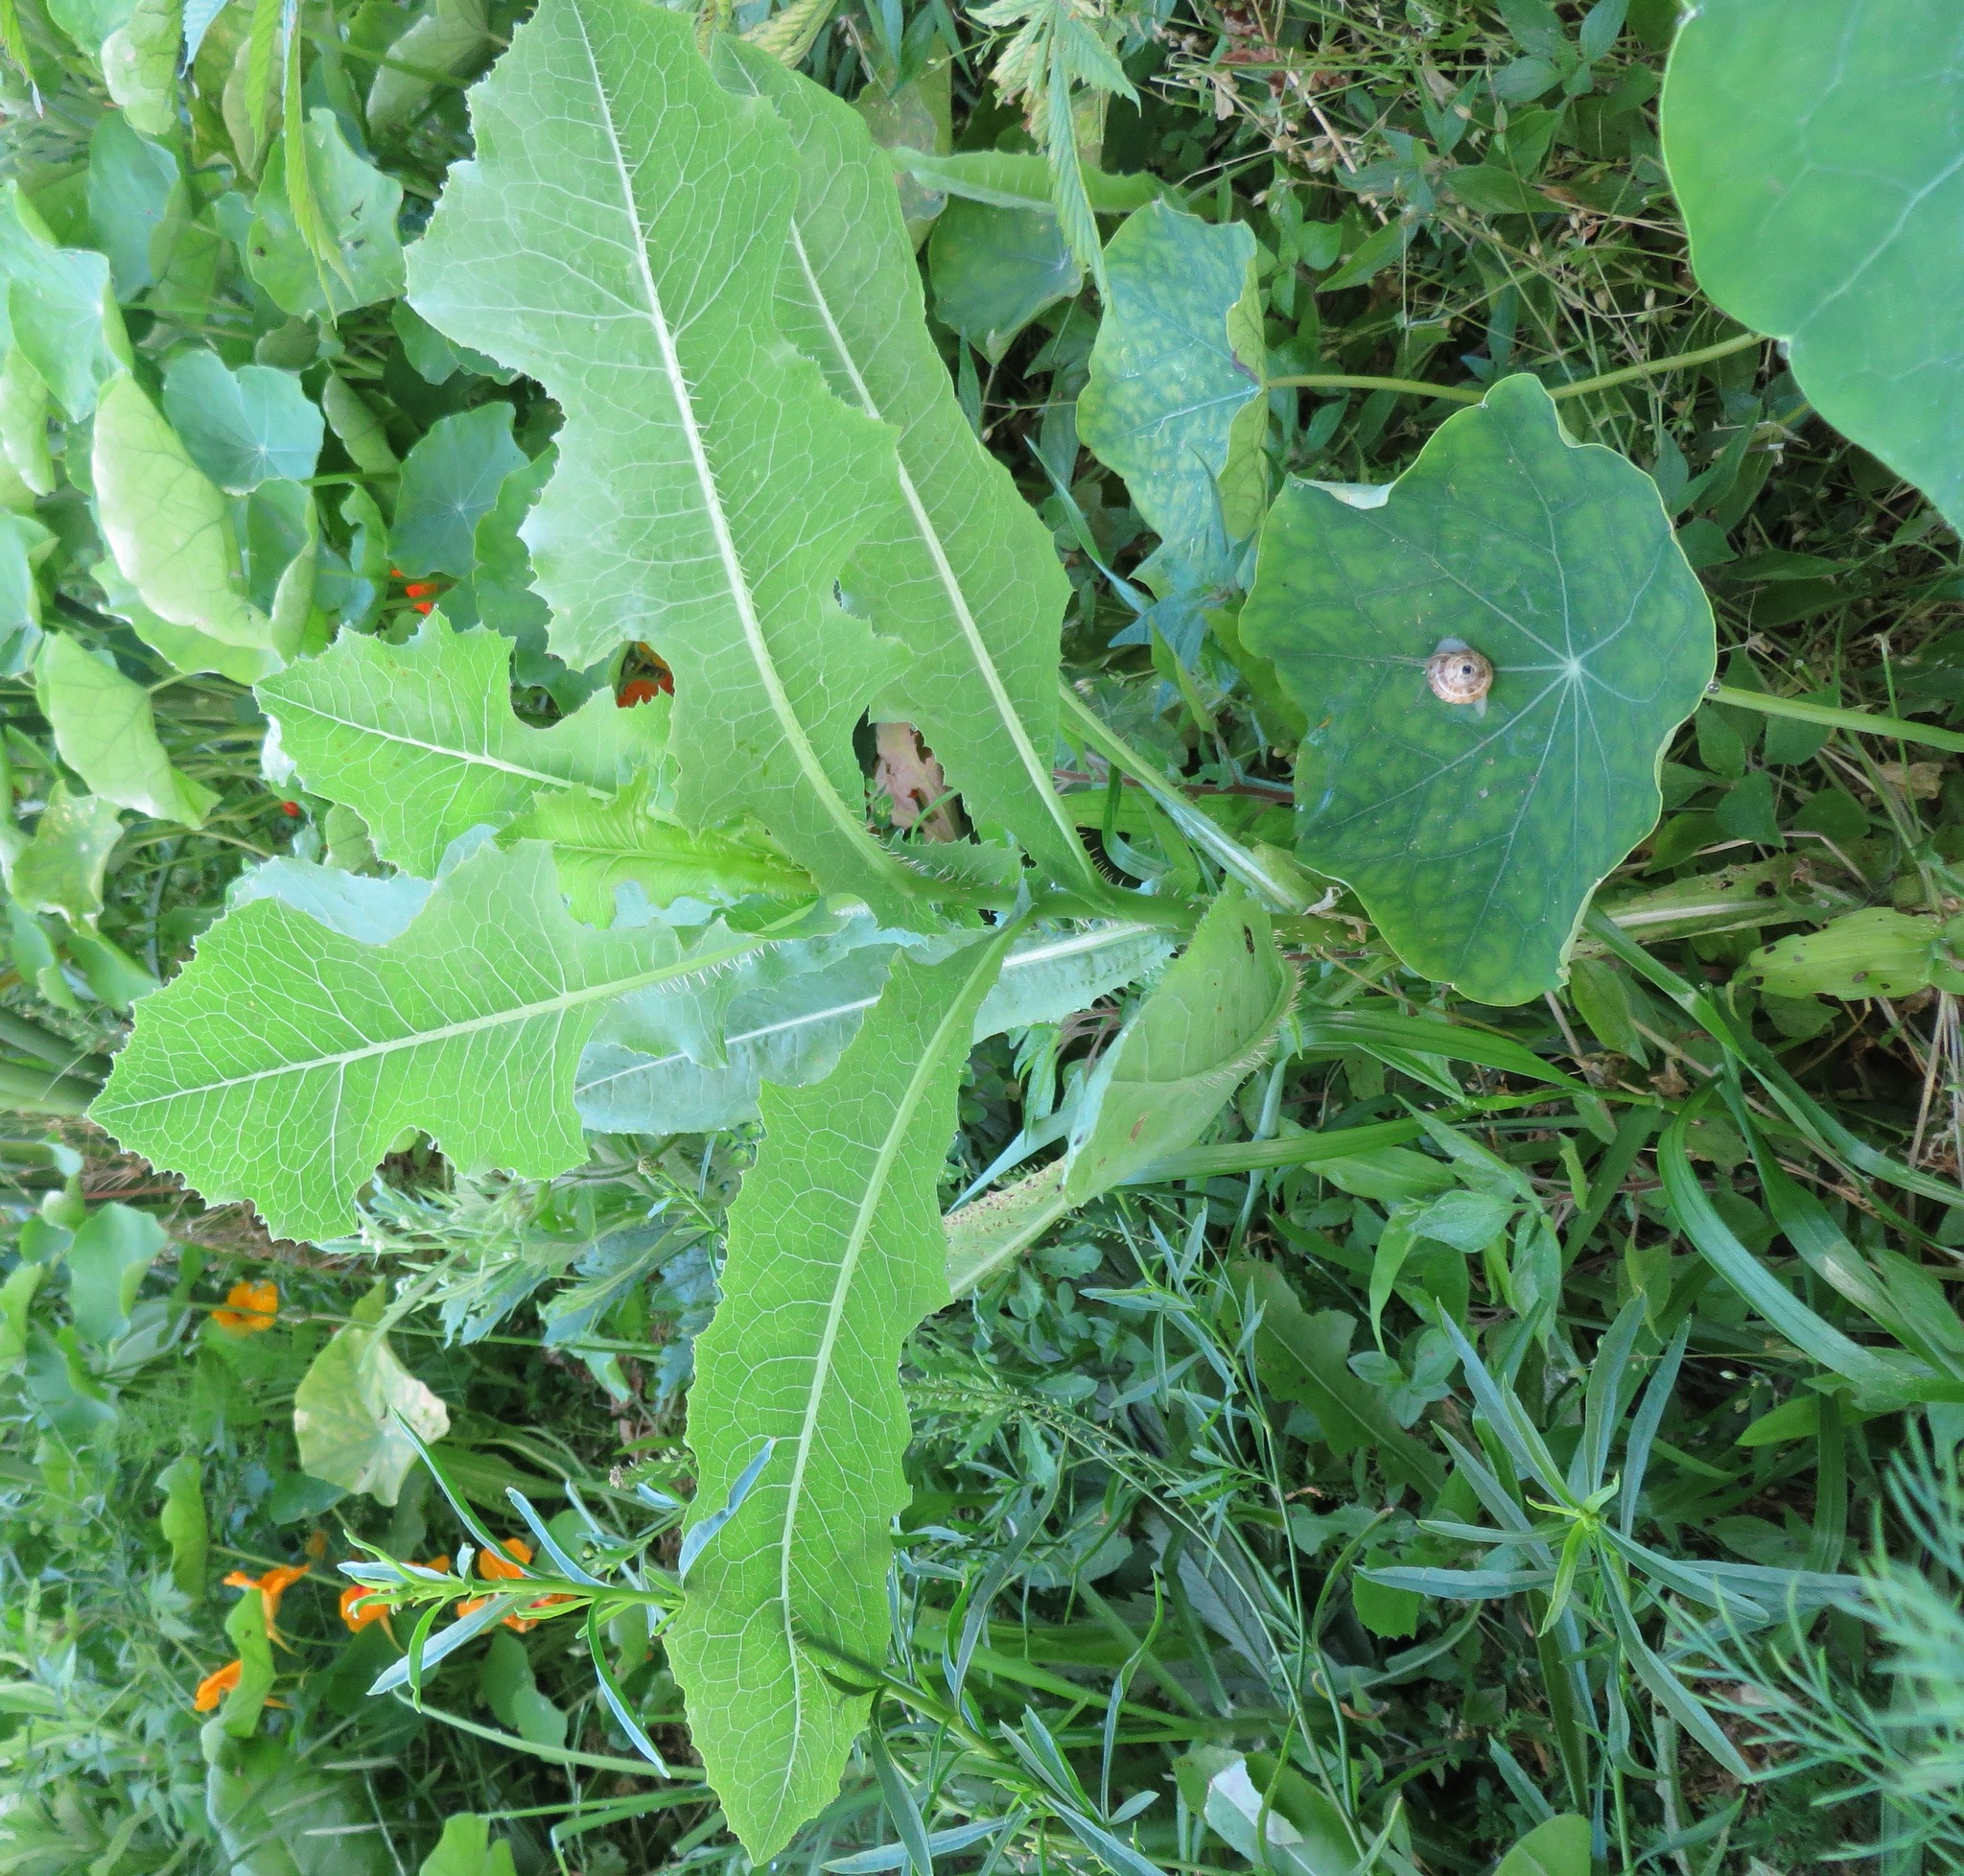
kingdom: Plantae
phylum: Tracheophyta
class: Magnoliopsida
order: Asterales
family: Asteraceae
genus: Lactuca
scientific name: Lactuca serriola
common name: Prickly lettuce
